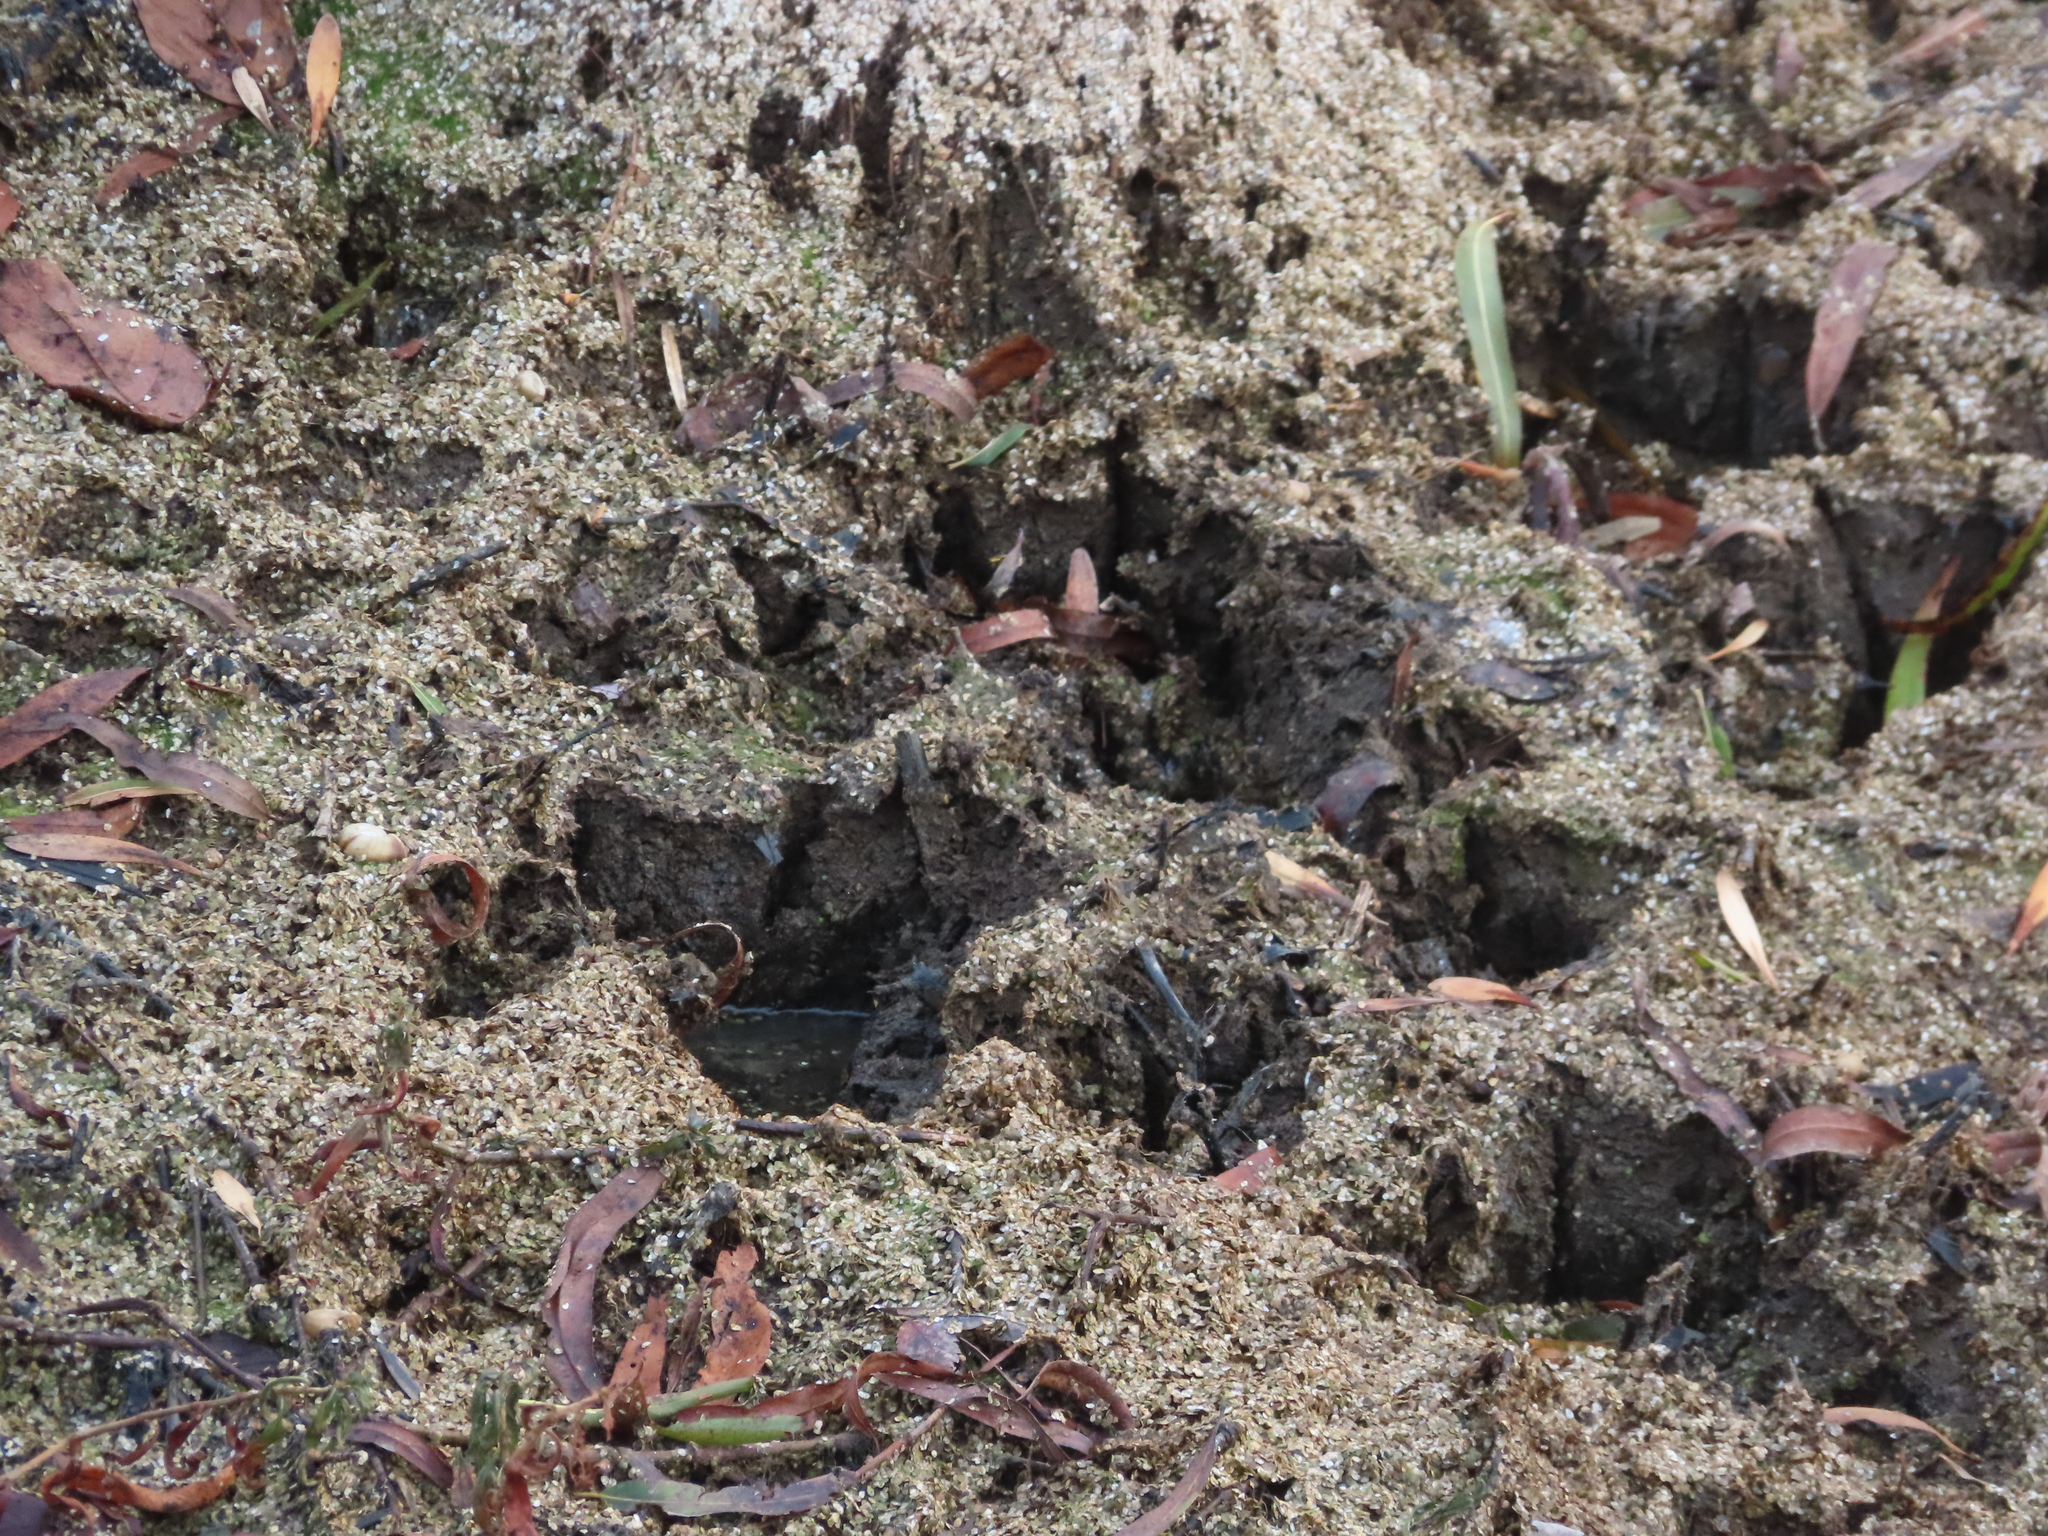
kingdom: Animalia
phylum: Chordata
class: Mammalia
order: Carnivora
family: Procyonidae
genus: Procyon
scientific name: Procyon lotor
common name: Raccoon
